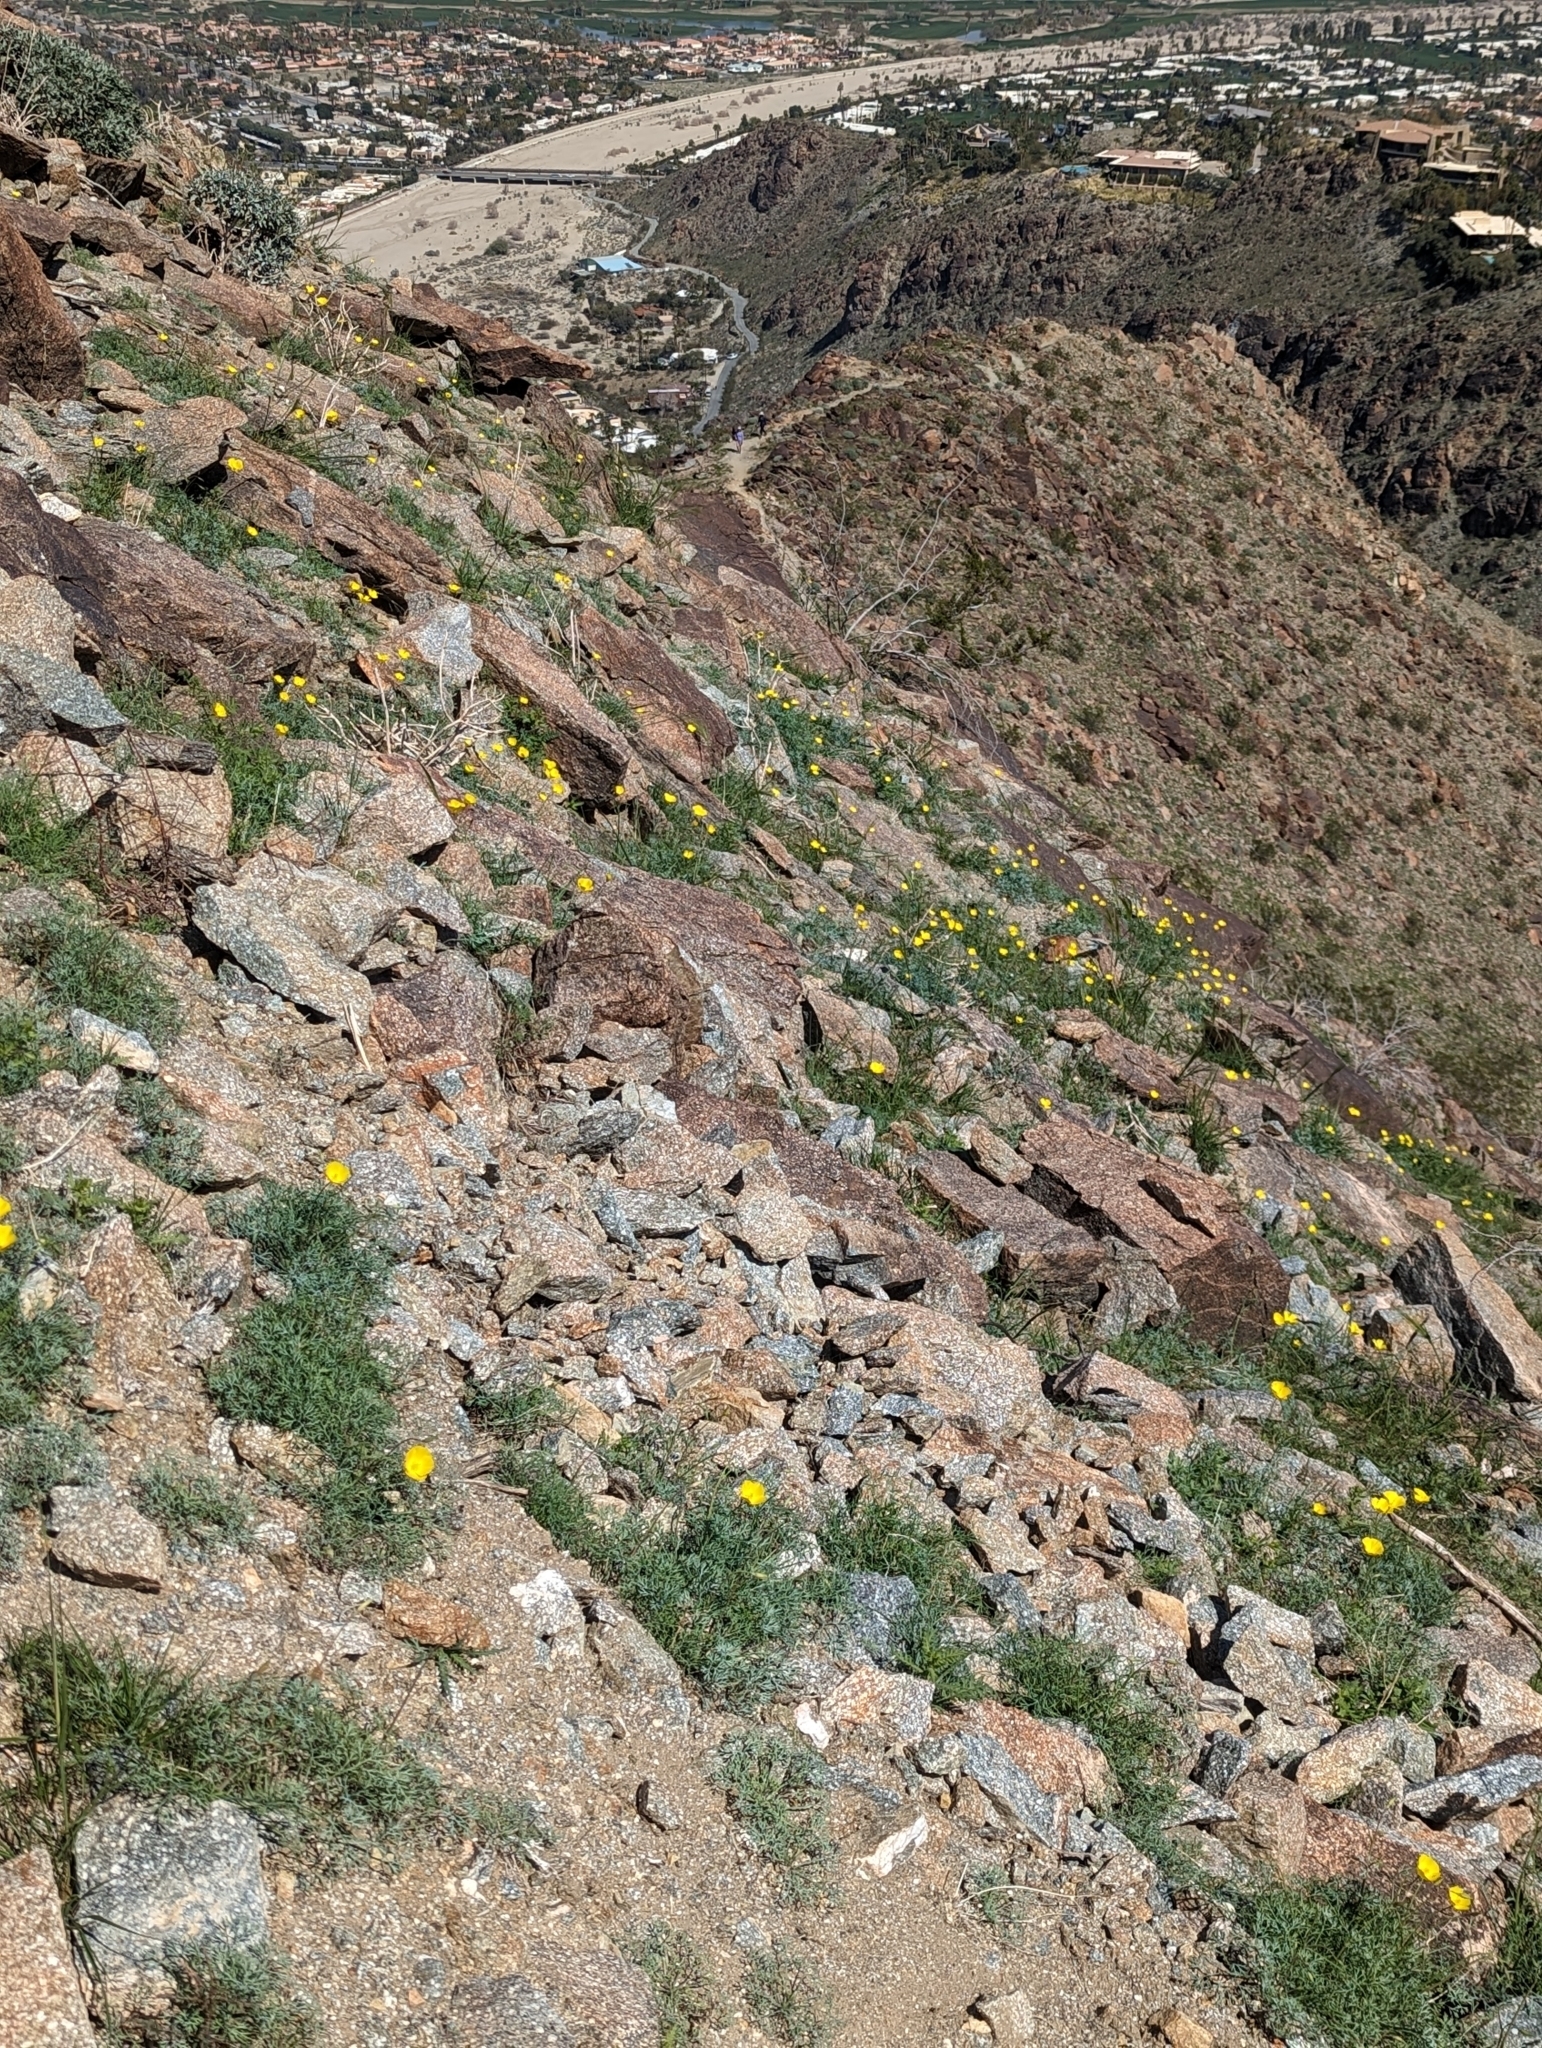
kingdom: Plantae
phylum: Tracheophyta
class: Magnoliopsida
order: Ranunculales
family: Papaveraceae
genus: Eschscholzia
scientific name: Eschscholzia parishii
